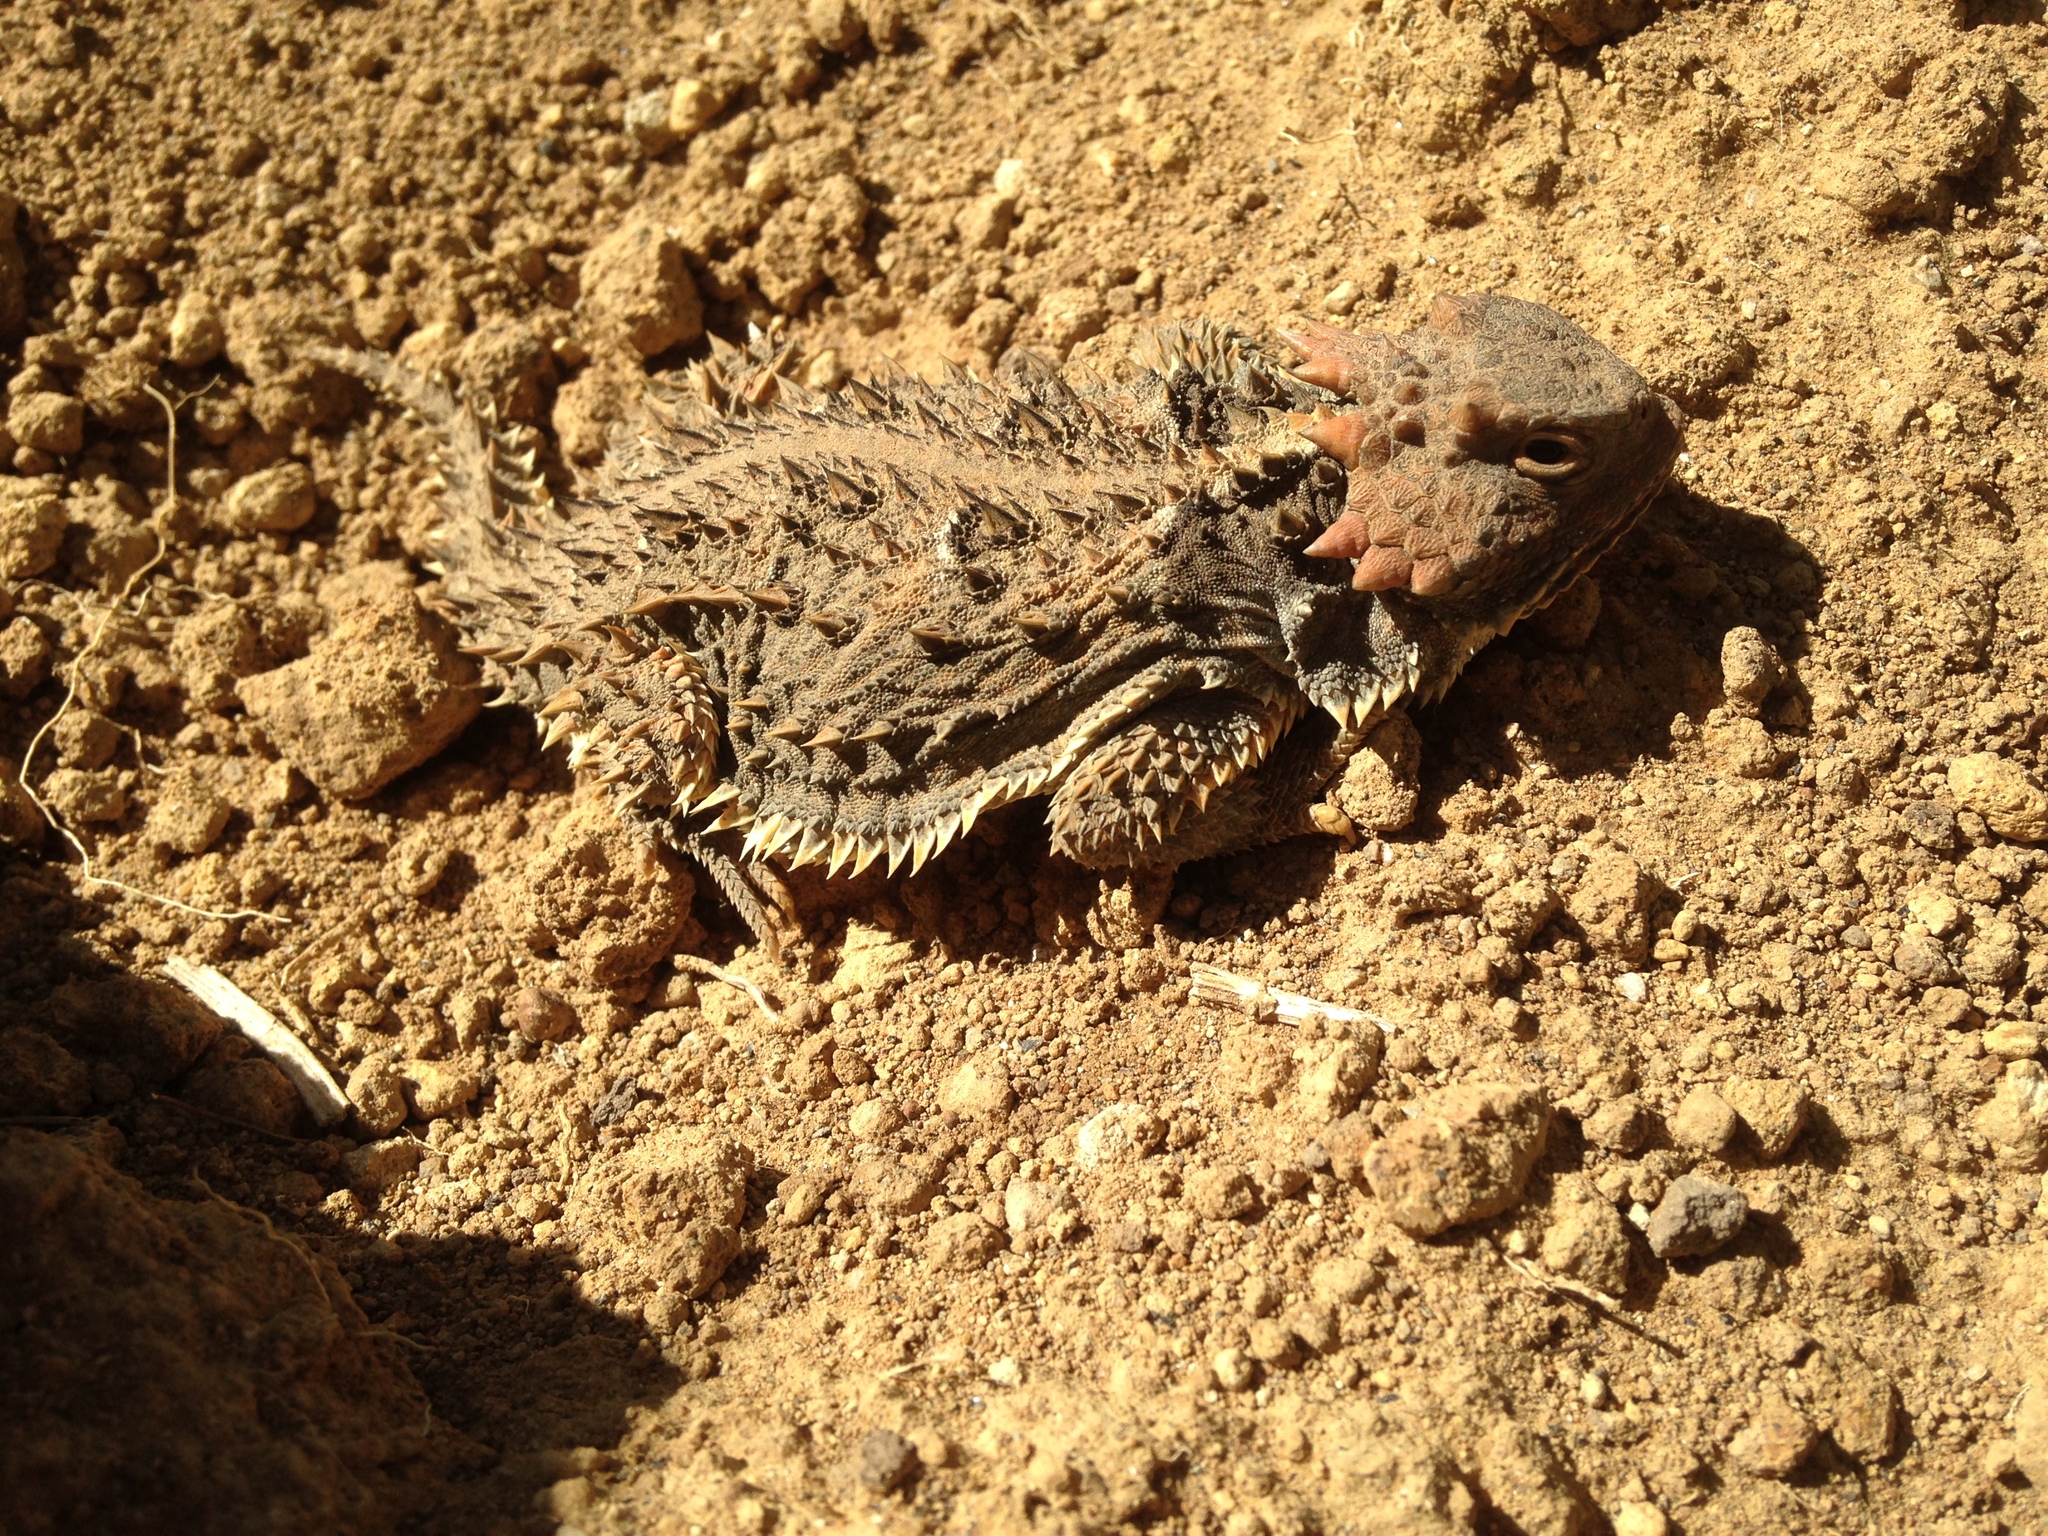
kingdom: Animalia
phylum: Chordata
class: Squamata
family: Phrynosomatidae
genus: Phrynosoma
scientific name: Phrynosoma orbiculare
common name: Mountain horned lizard
